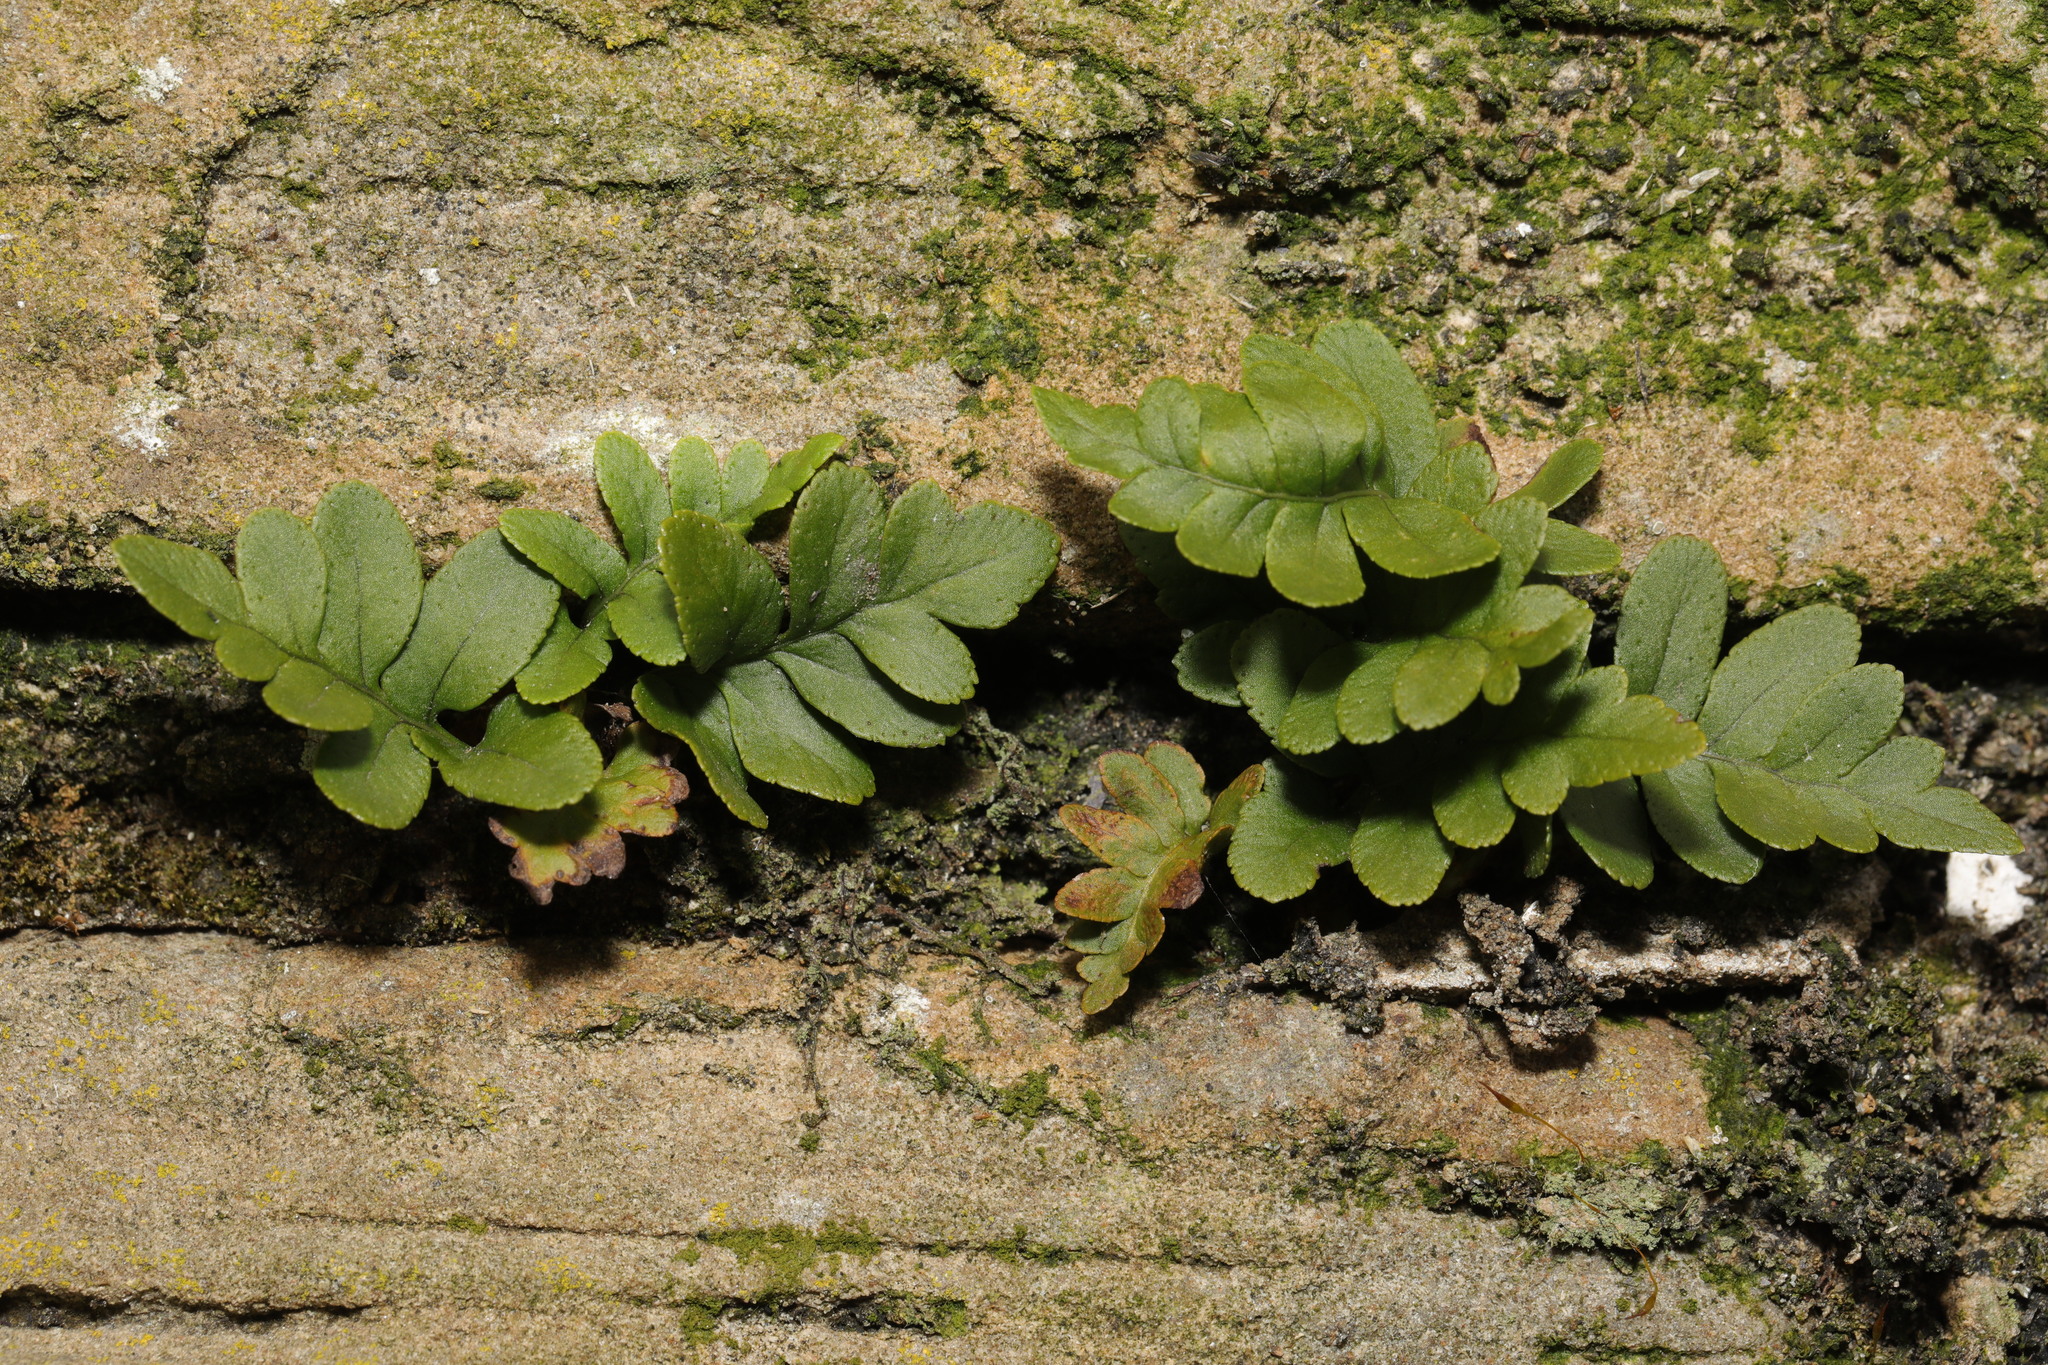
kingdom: Plantae
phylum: Tracheophyta
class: Polypodiopsida
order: Polypodiales
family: Polypodiaceae
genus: Polypodium
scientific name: Polypodium vulgare
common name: Common polypody
